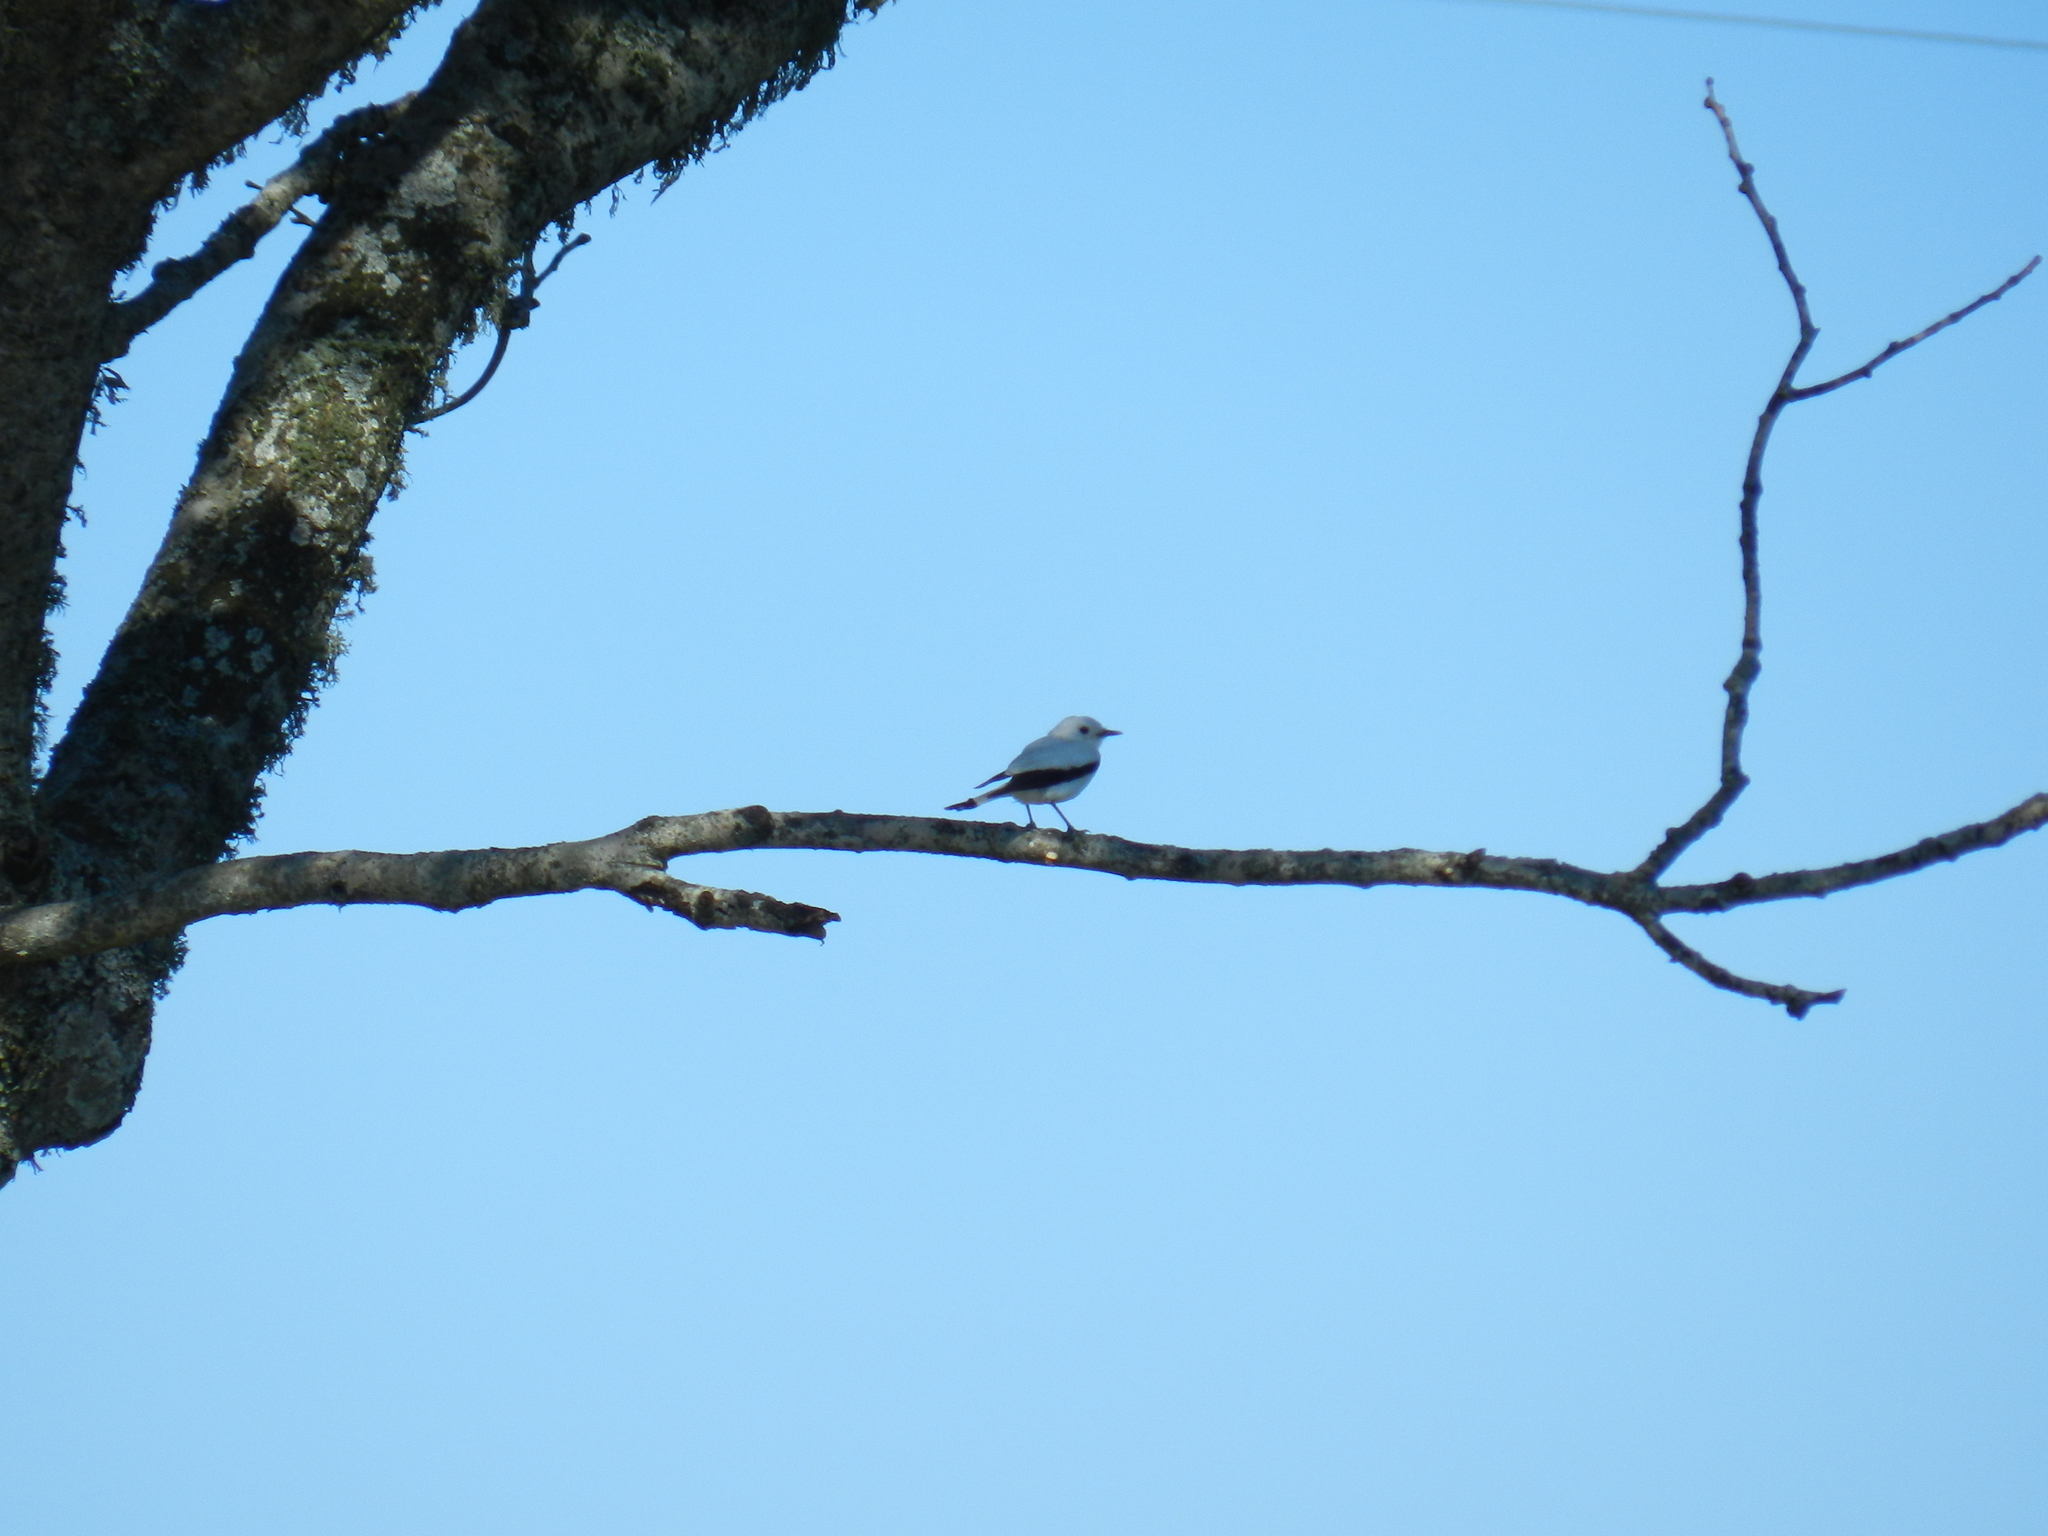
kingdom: Animalia
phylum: Chordata
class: Aves
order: Passeriformes
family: Tyrannidae
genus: Xolmis
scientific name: Xolmis irupero
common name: White monjita
